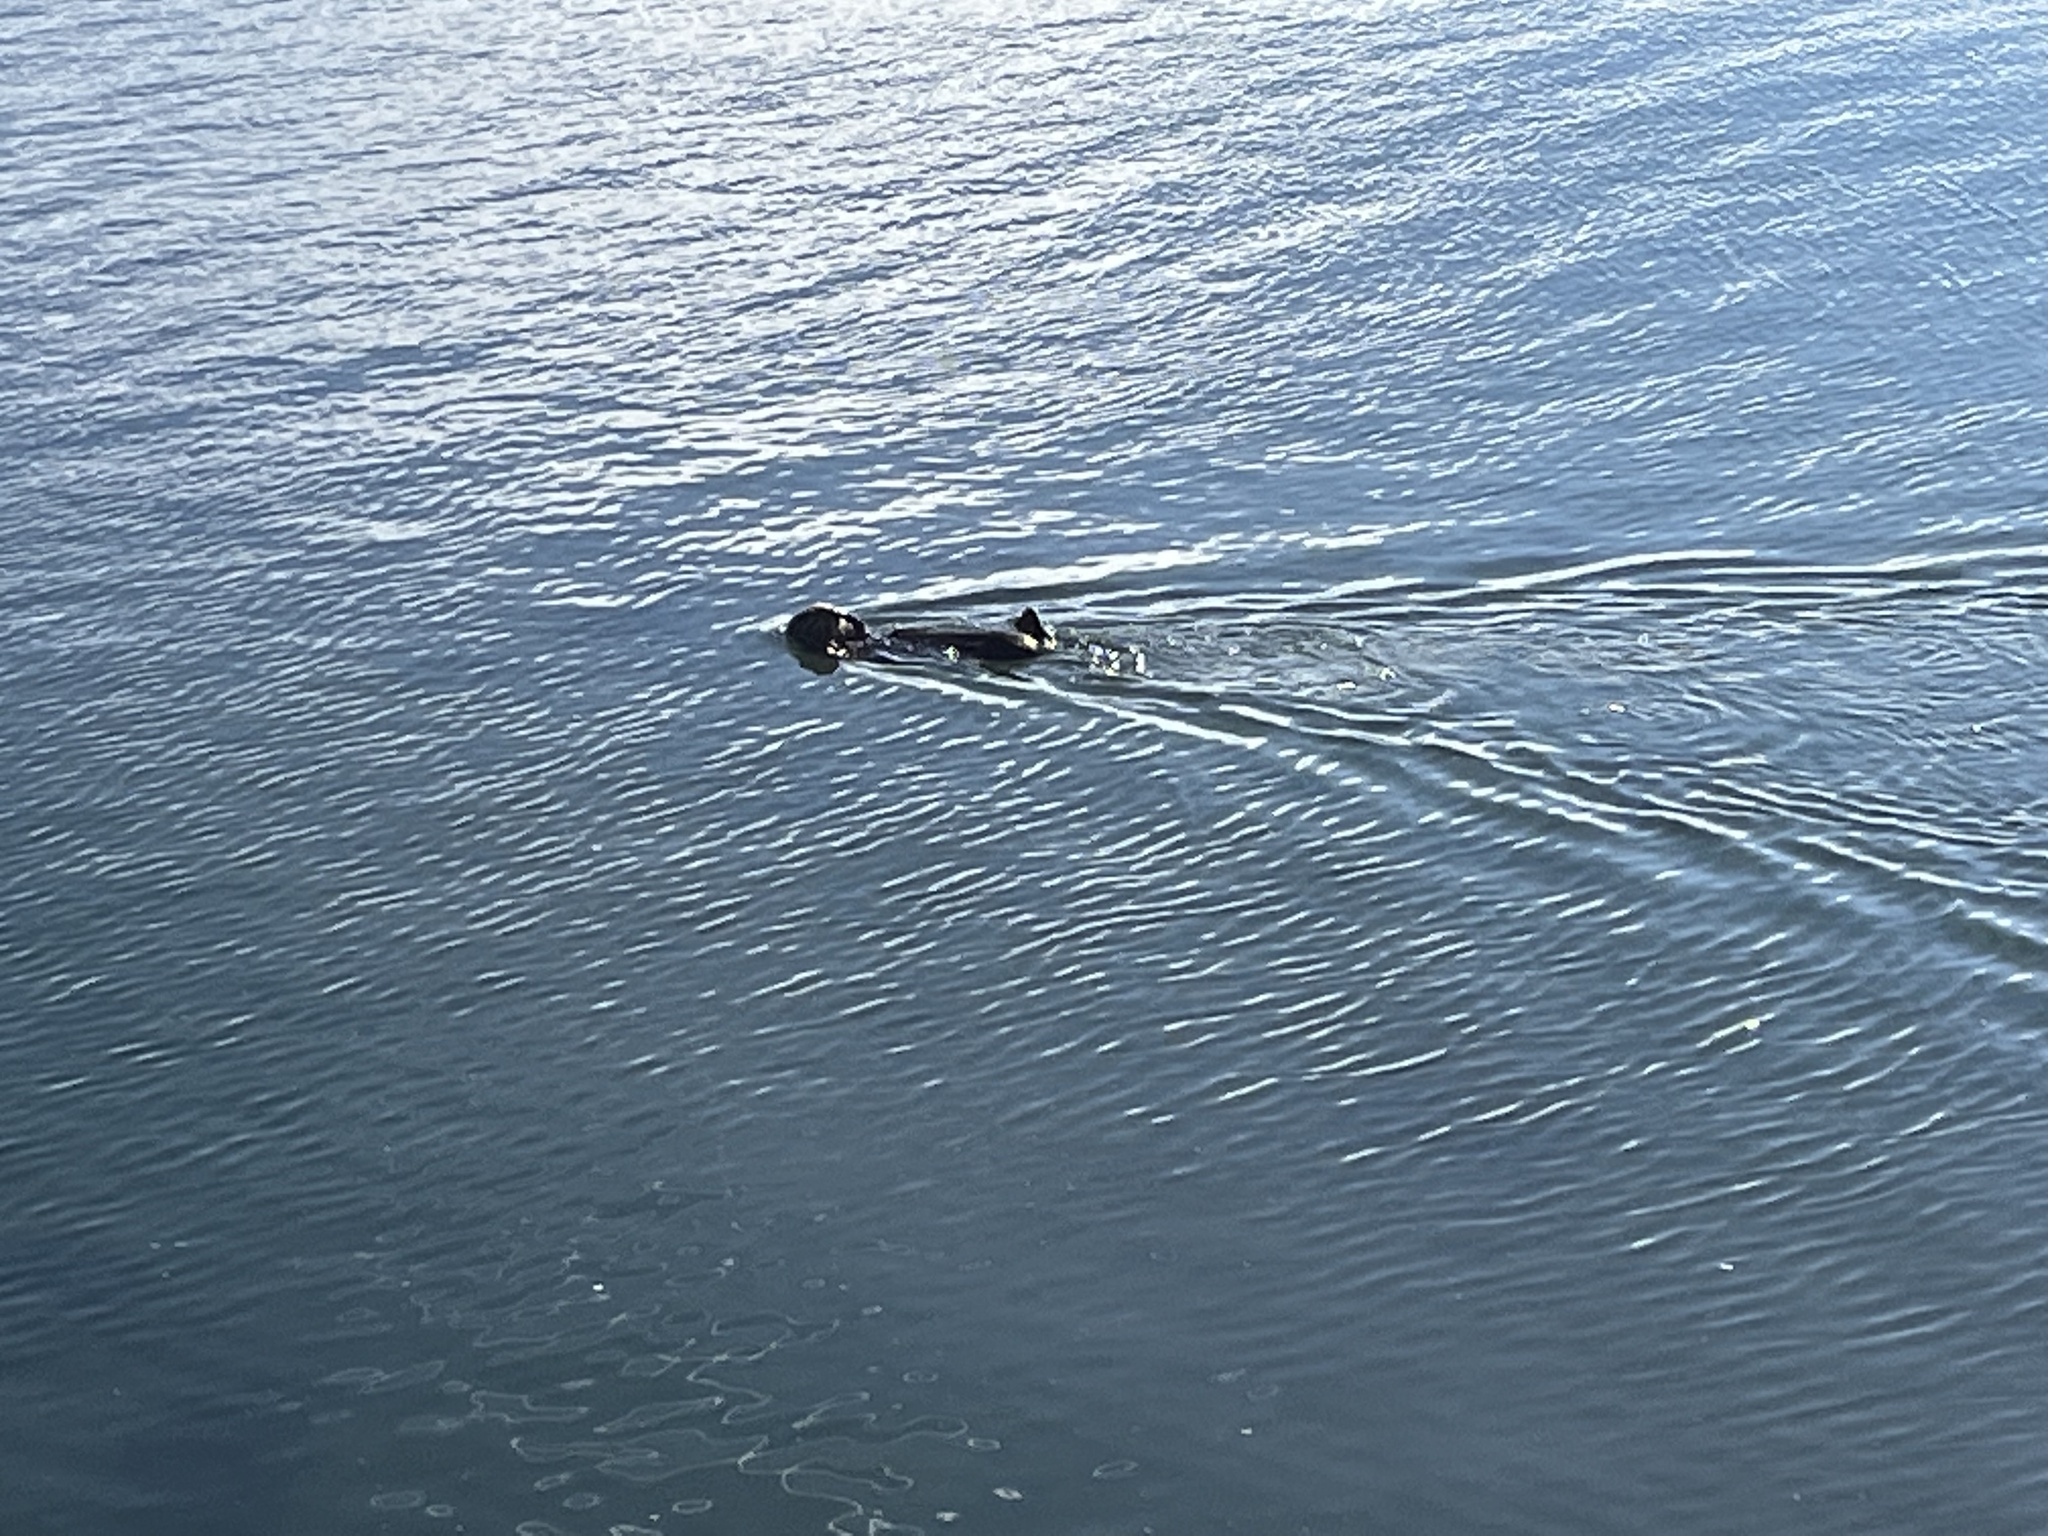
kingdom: Animalia
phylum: Chordata
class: Mammalia
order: Carnivora
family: Mustelidae
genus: Enhydra
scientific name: Enhydra lutris
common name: Sea otter
